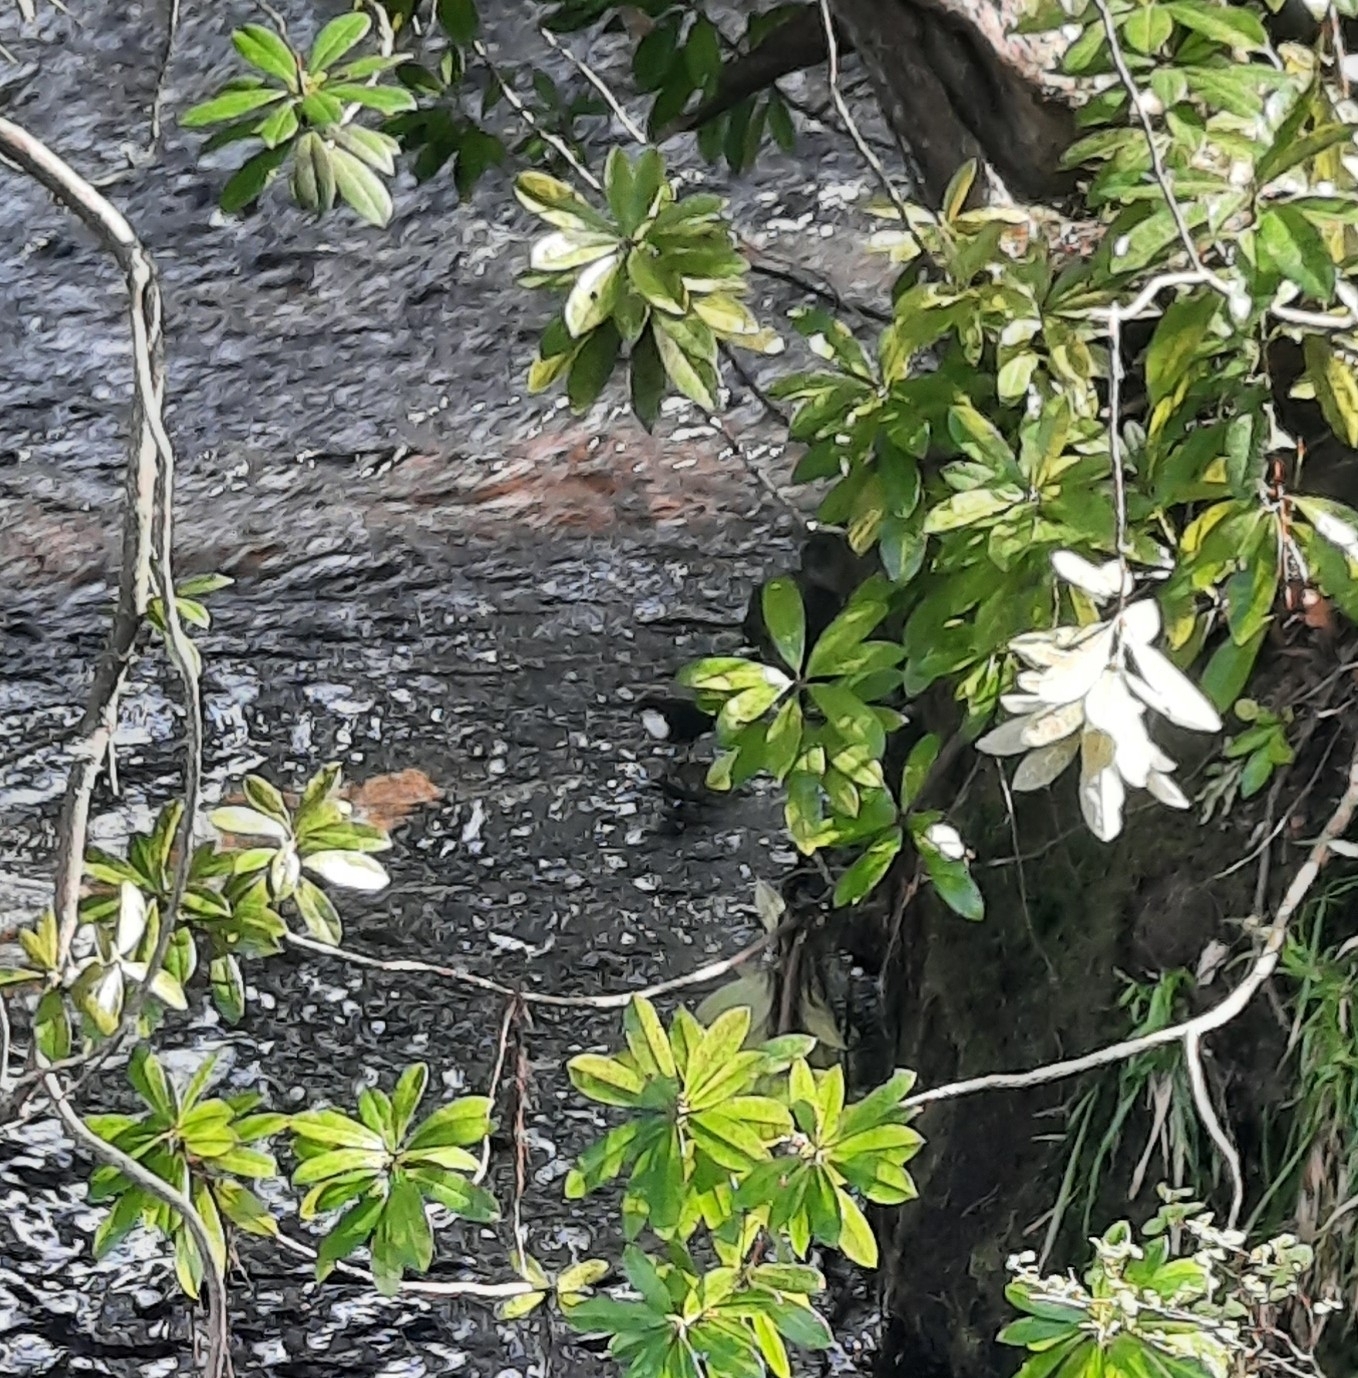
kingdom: Animalia
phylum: Chordata
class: Aves
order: Passeriformes
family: Cinclidae
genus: Cinclus
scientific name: Cinclus cinclus
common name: White-throated dipper
